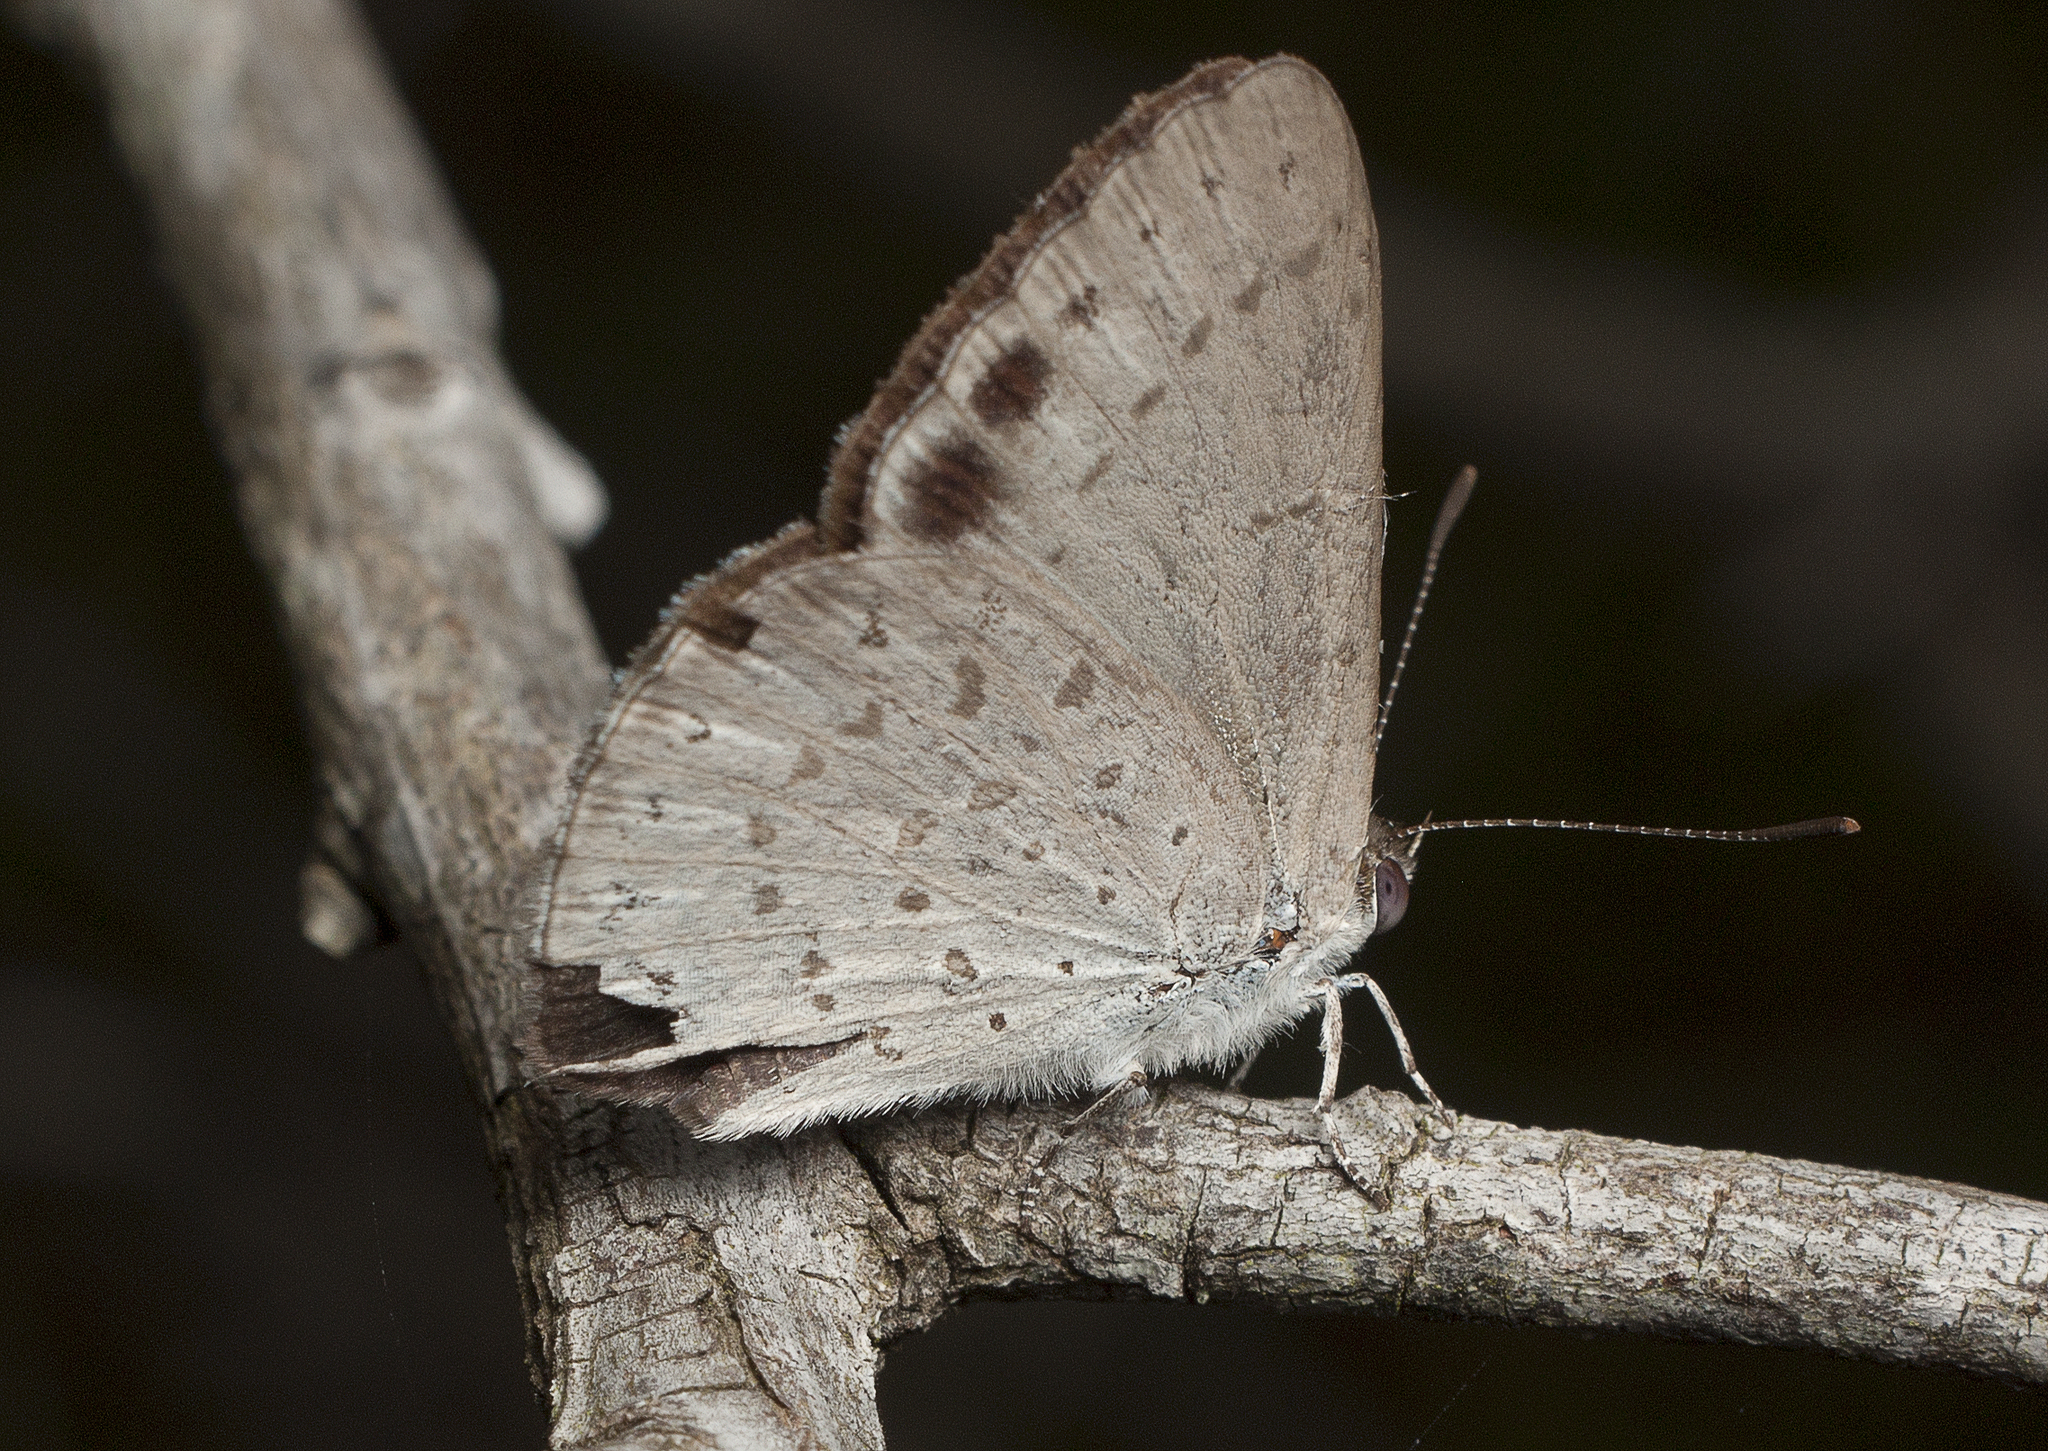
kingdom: Animalia
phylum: Arthropoda
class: Insecta
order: Lepidoptera
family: Lycaenidae
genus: Candalides
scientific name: Candalides
